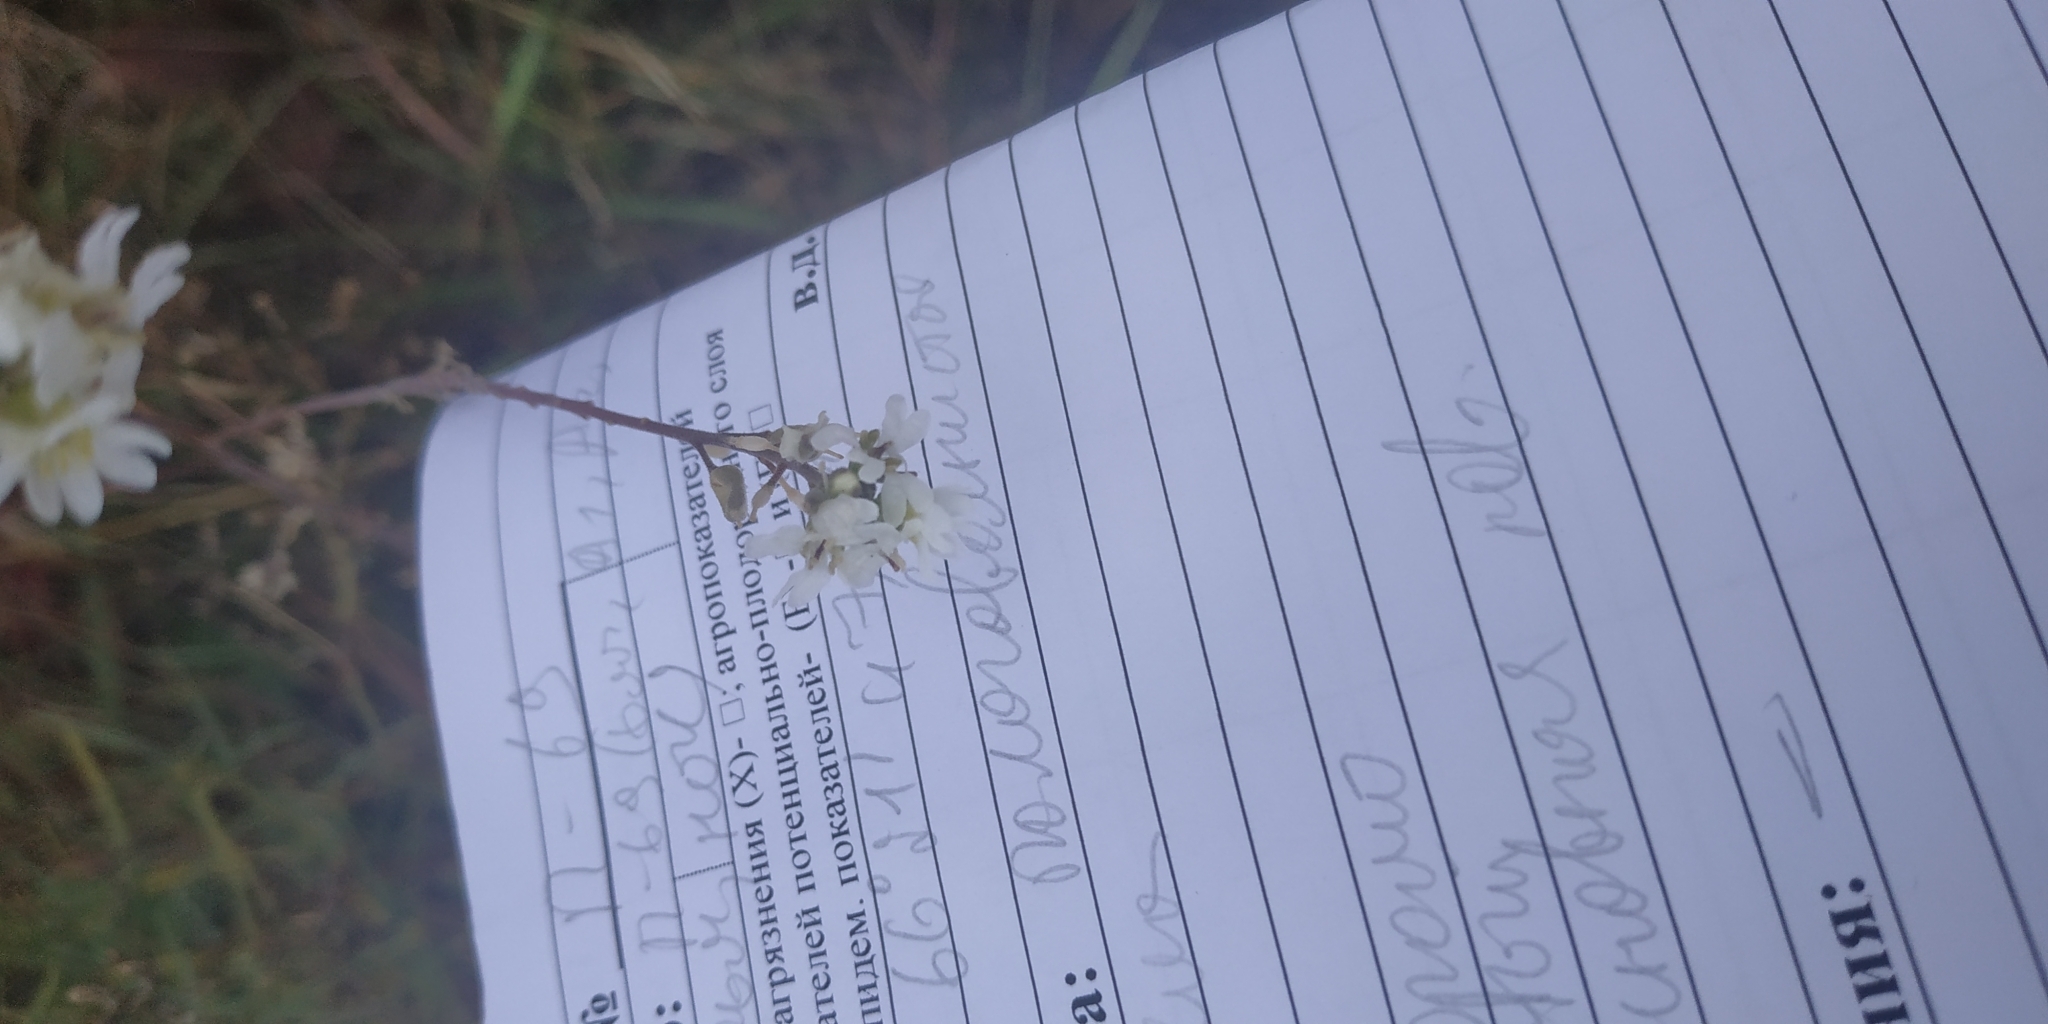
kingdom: Plantae
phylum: Tracheophyta
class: Magnoliopsida
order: Brassicales
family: Brassicaceae
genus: Berteroa
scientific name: Berteroa incana
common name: Hoary alison
